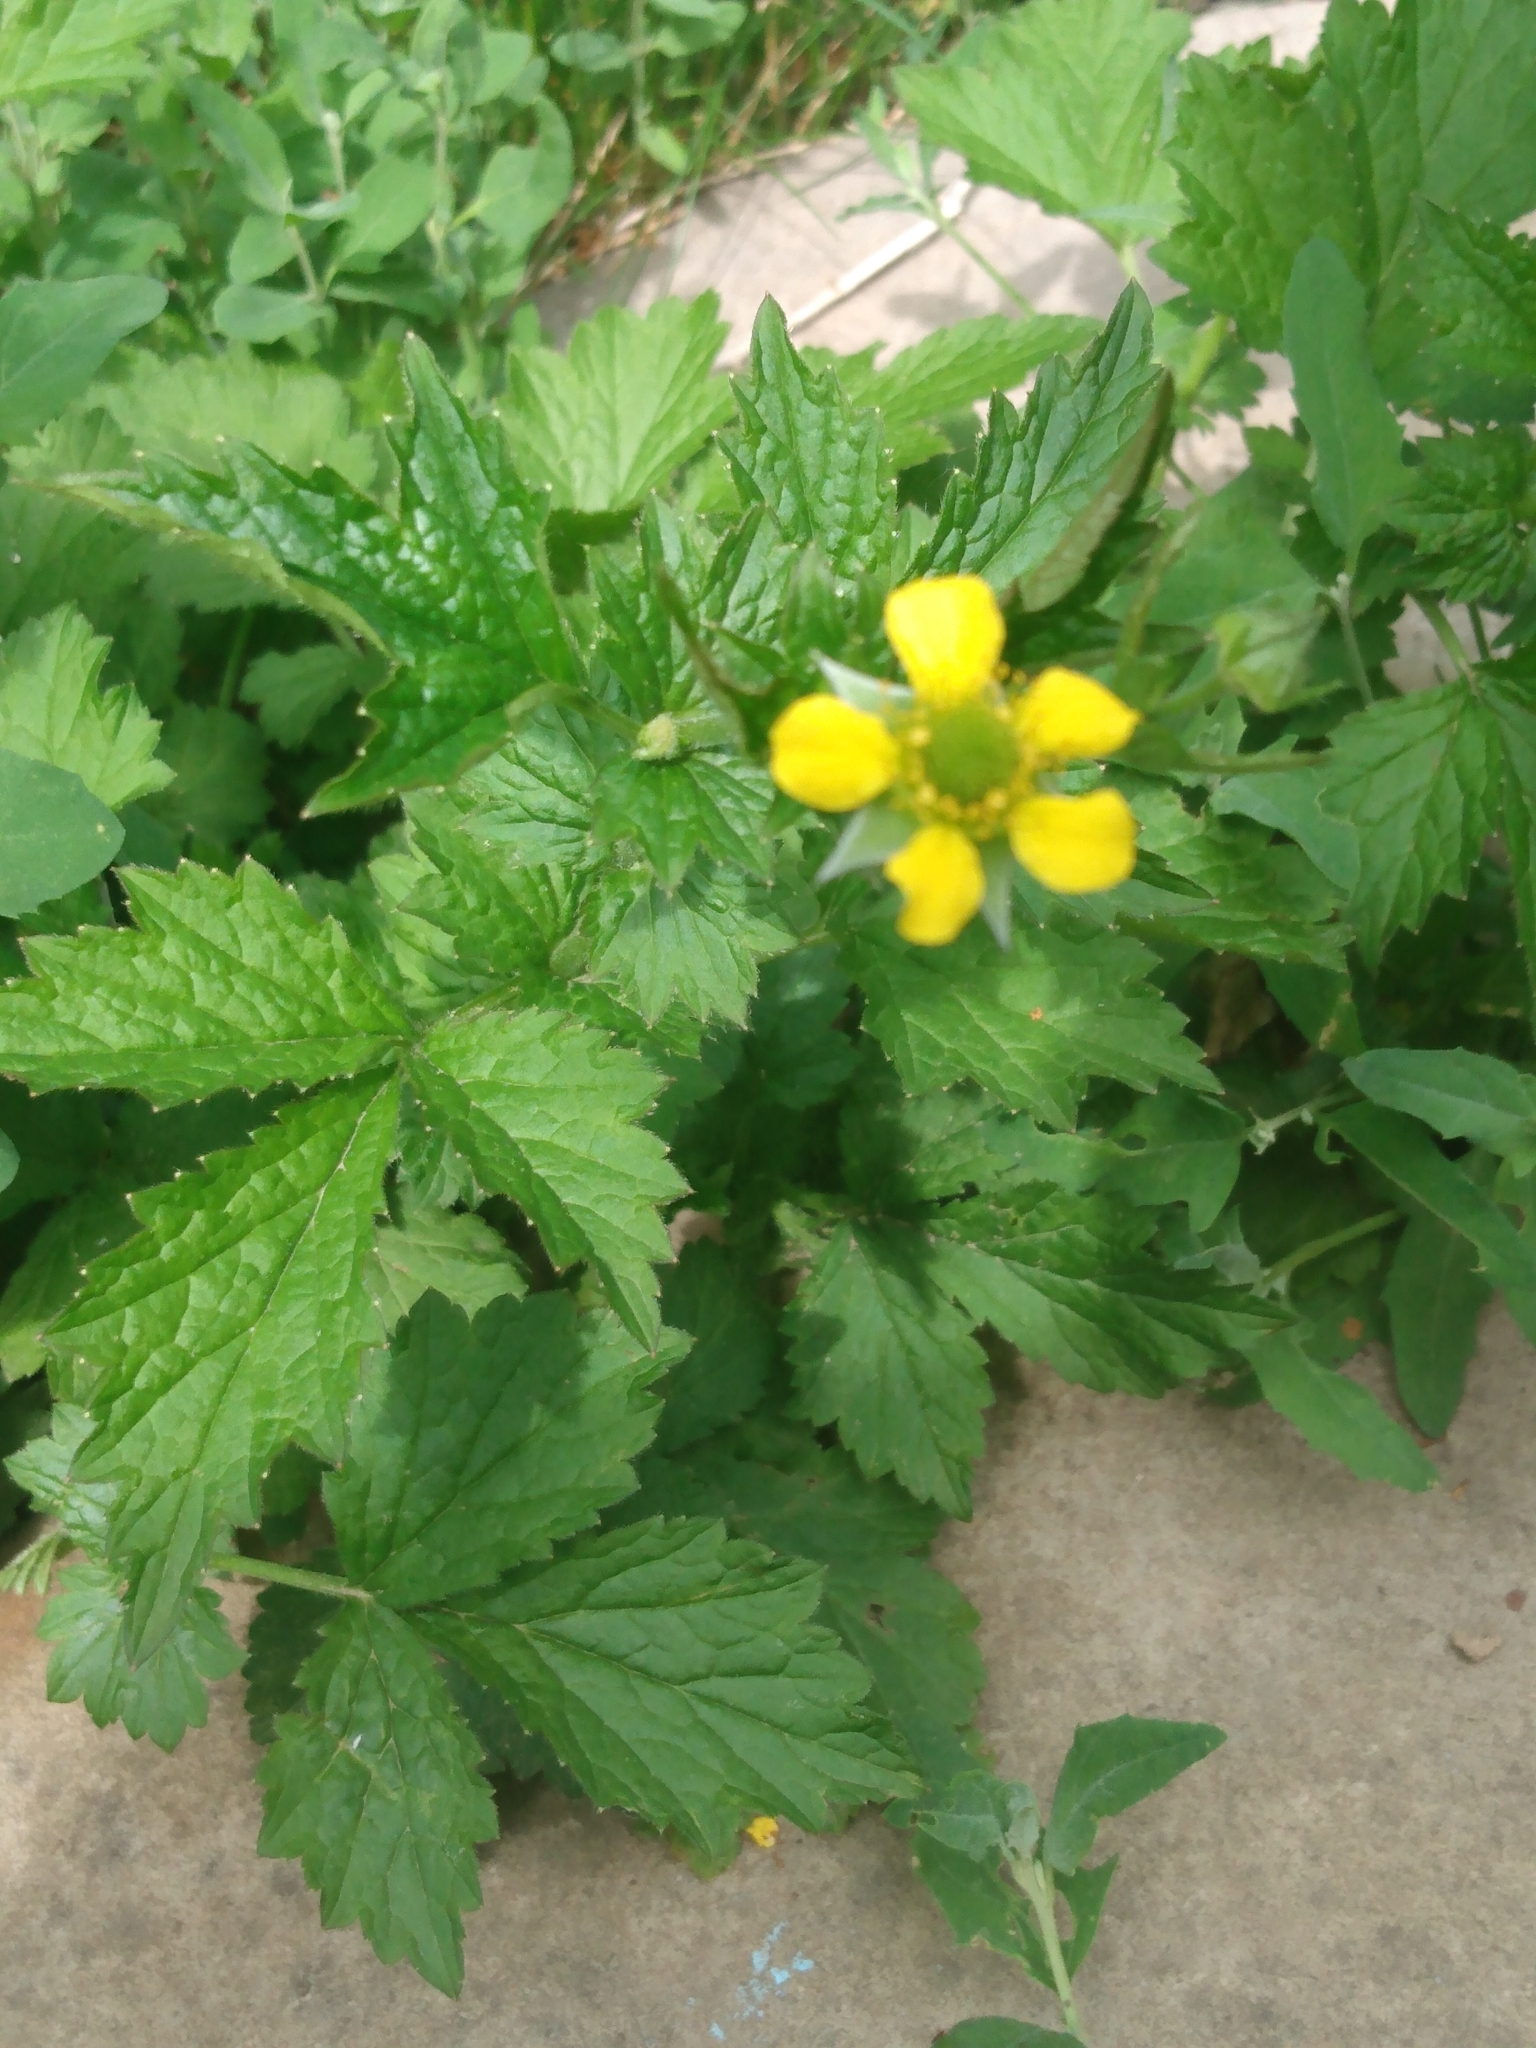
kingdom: Plantae
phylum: Tracheophyta
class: Magnoliopsida
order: Rosales
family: Rosaceae
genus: Geum
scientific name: Geum urbanum
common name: Wood avens
